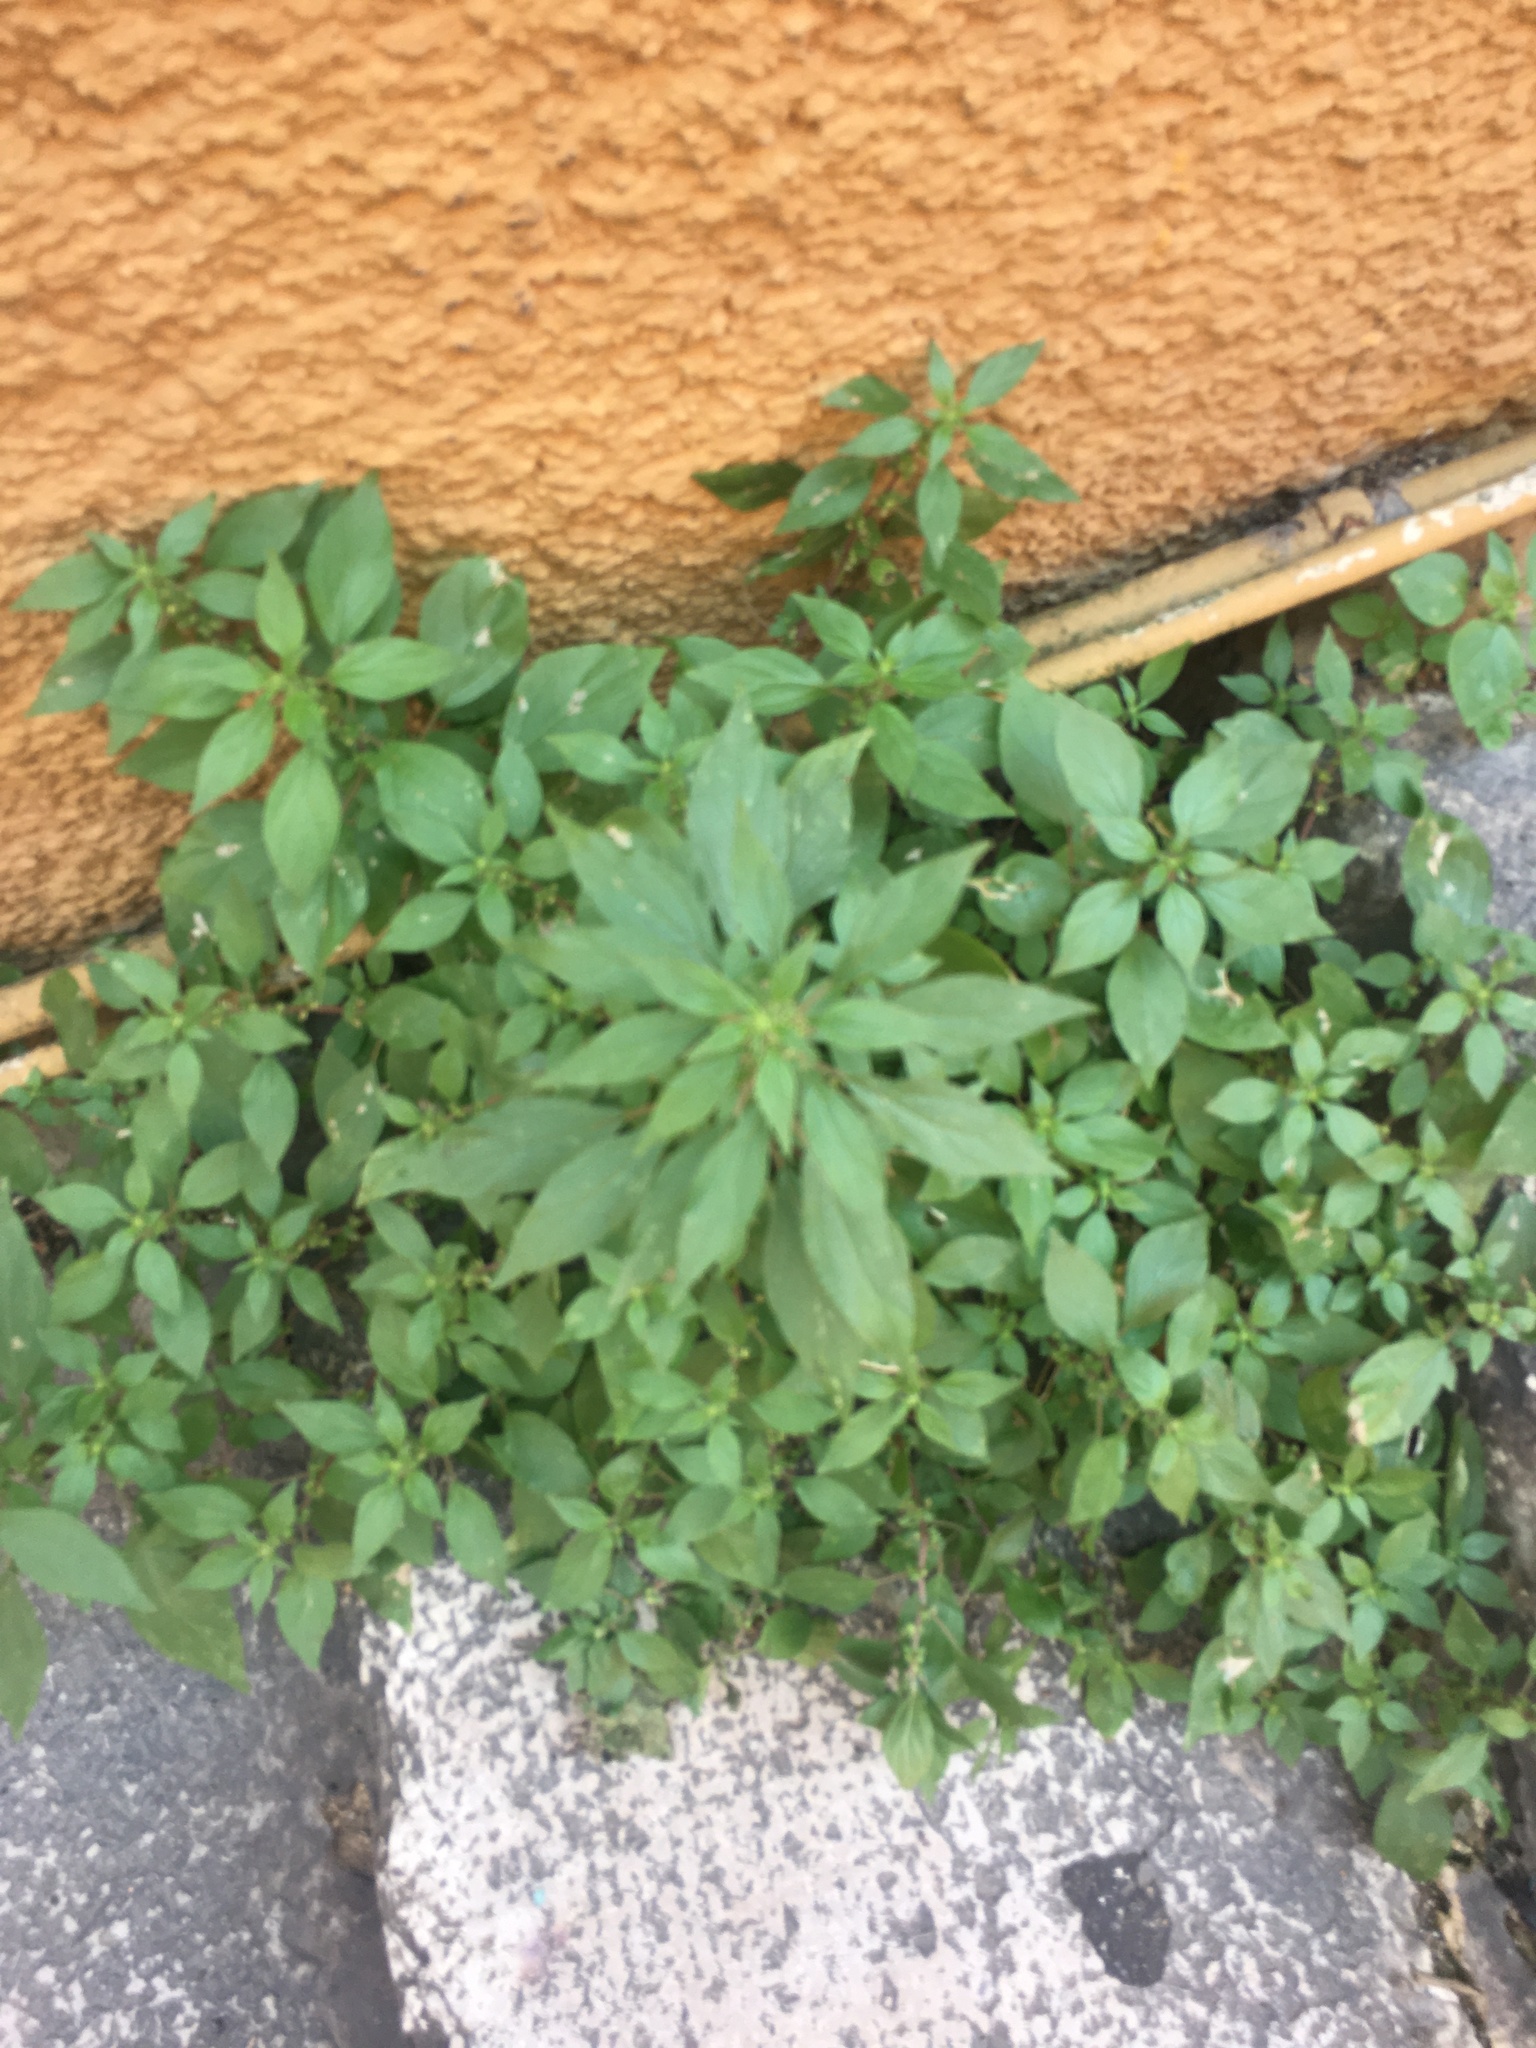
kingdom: Plantae
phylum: Tracheophyta
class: Magnoliopsida
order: Rosales
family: Urticaceae
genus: Parietaria
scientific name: Parietaria judaica
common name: Pellitory-of-the-wall
